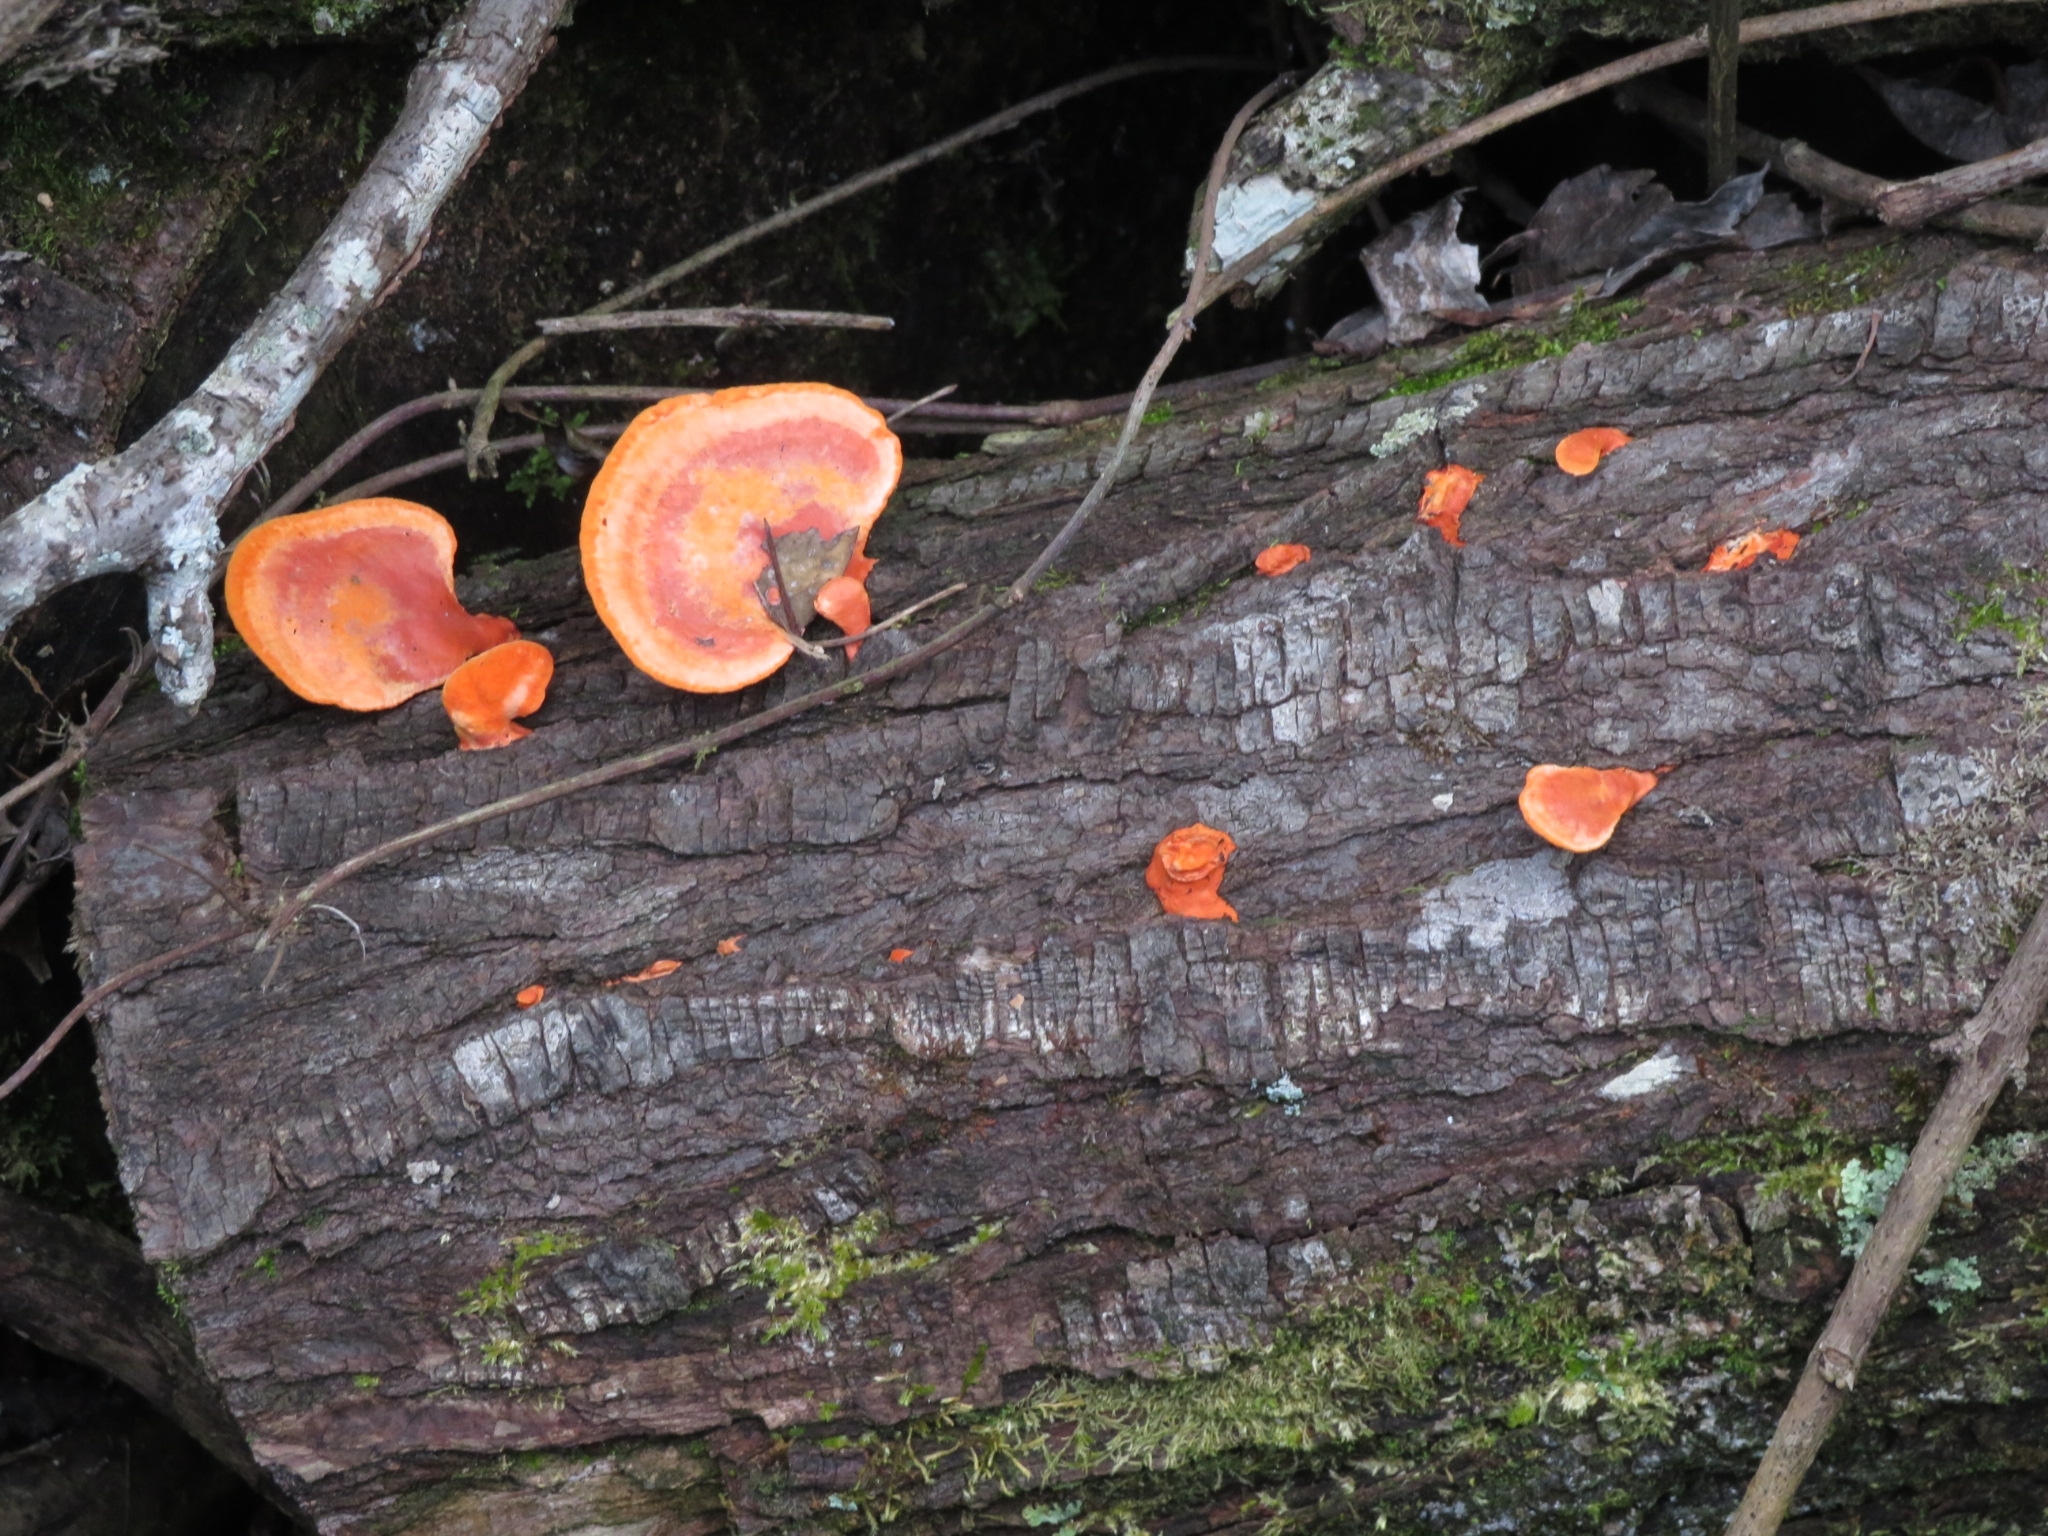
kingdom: Fungi
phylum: Basidiomycota
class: Agaricomycetes
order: Polyporales
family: Polyporaceae
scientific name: Polyporaceae
